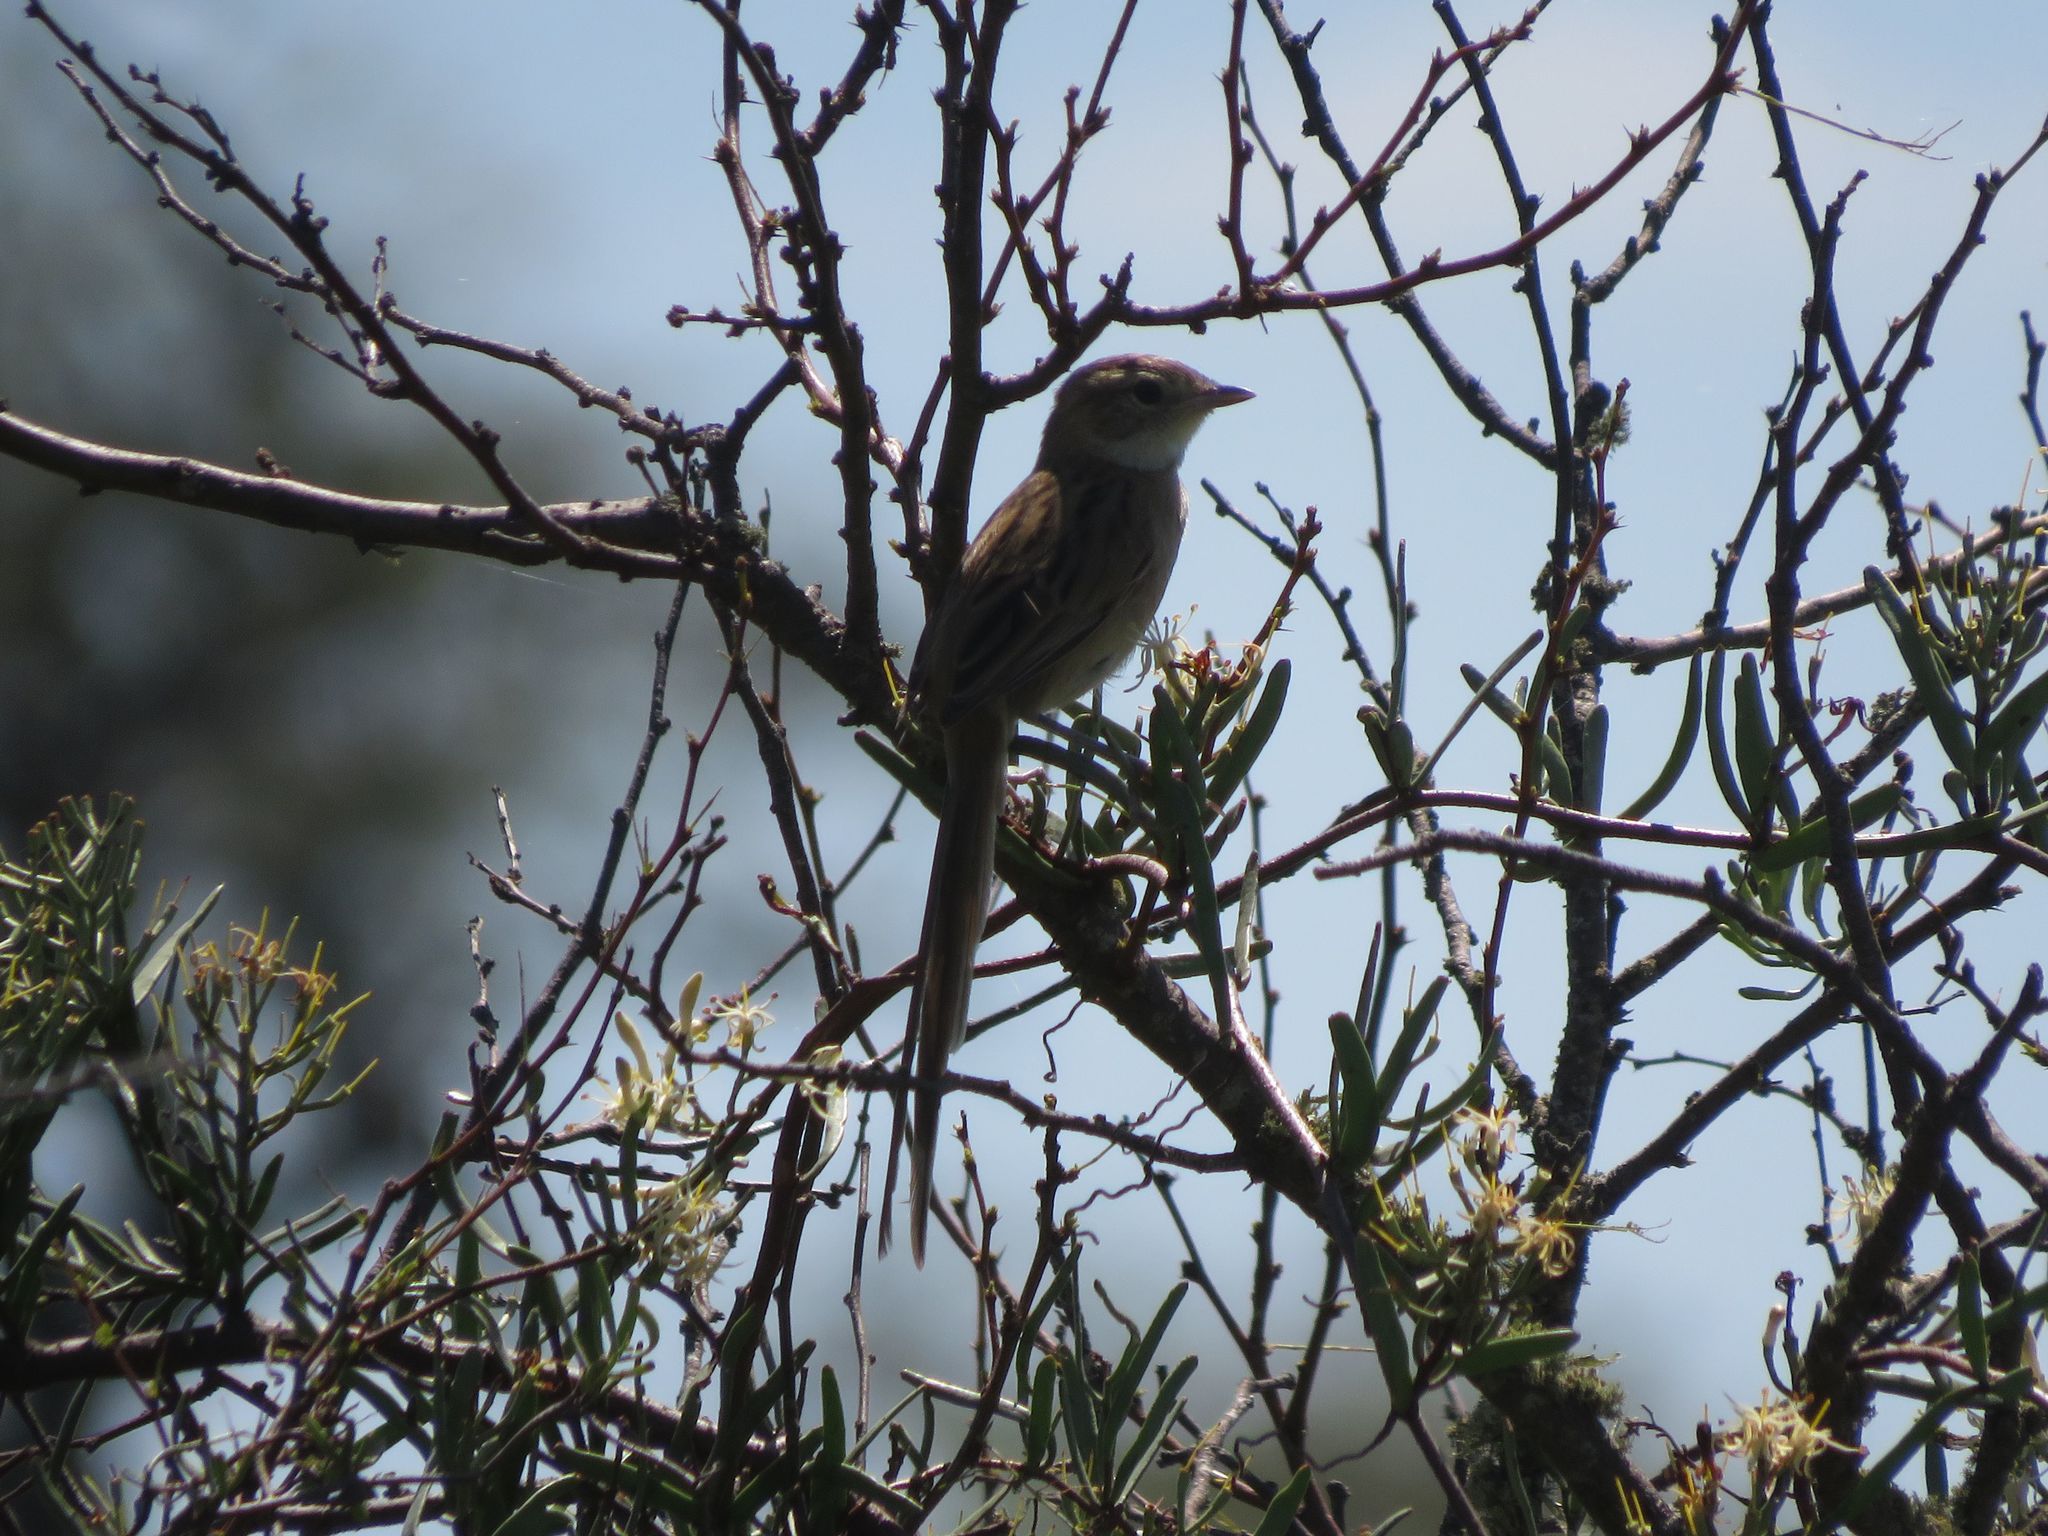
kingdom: Animalia
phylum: Chordata
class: Aves
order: Passeriformes
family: Furnariidae
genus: Schoeniophylax
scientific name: Schoeniophylax phryganophilus
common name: Chotoy spinetail
